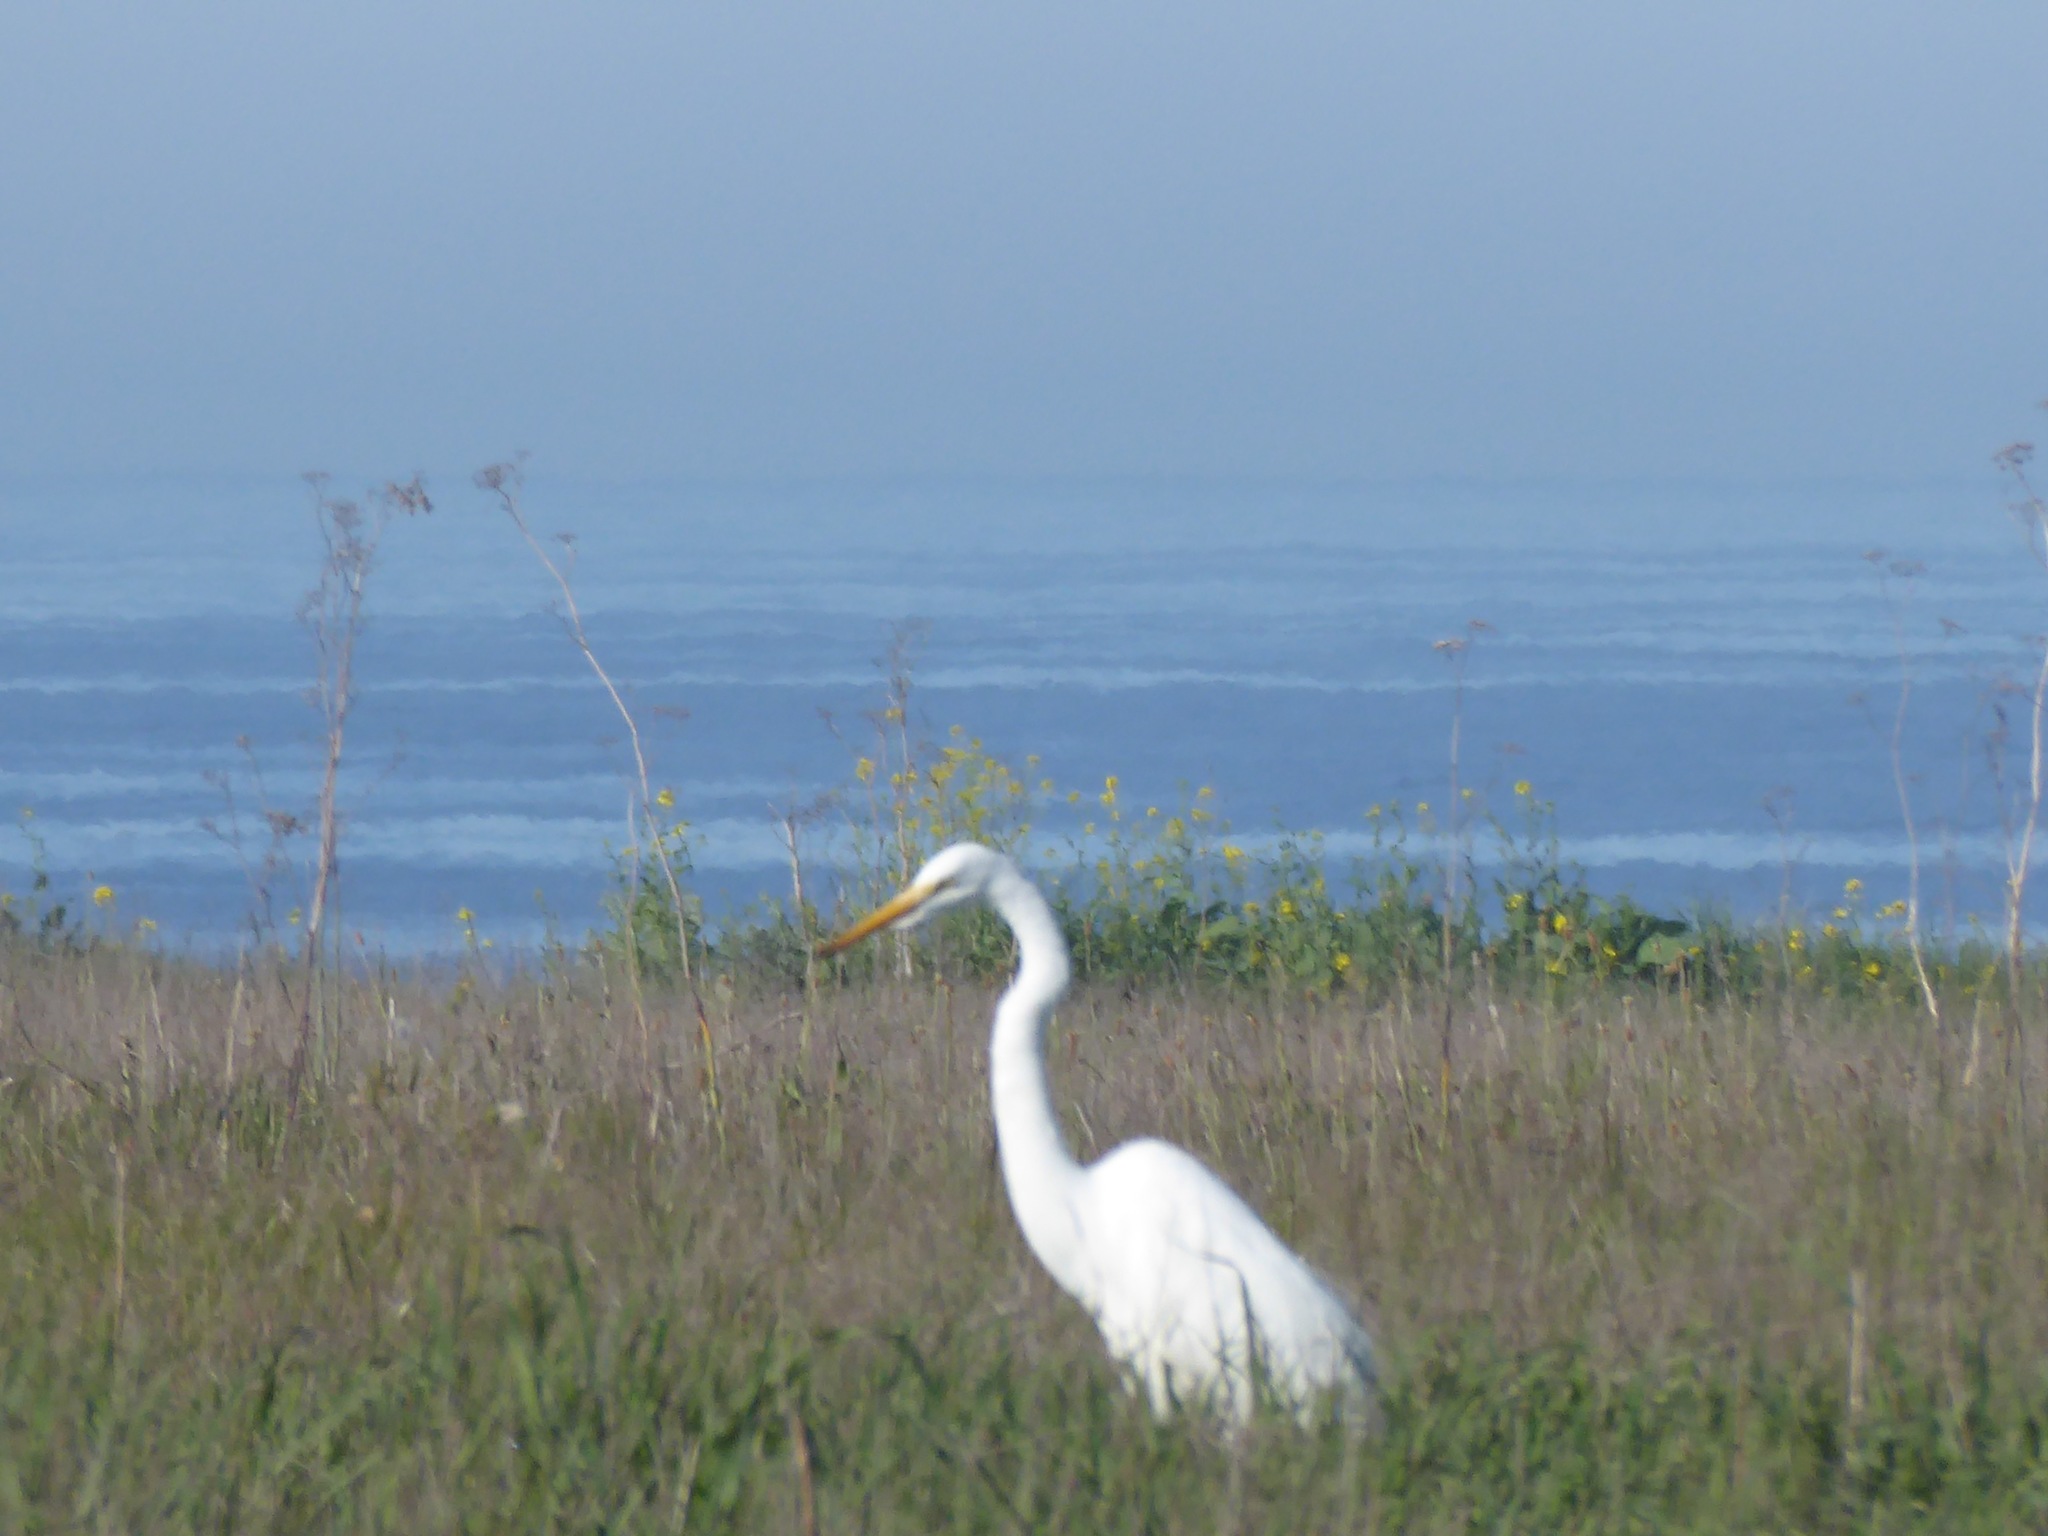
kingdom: Animalia
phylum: Chordata
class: Aves
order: Pelecaniformes
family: Ardeidae
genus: Ardea
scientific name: Ardea alba
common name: Great egret
